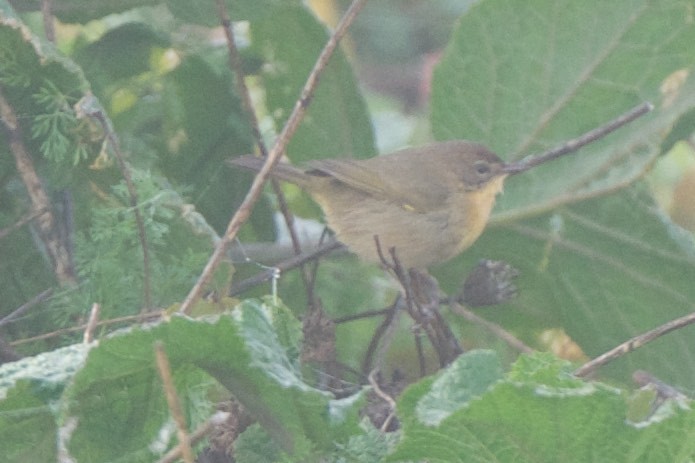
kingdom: Animalia
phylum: Chordata
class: Aves
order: Passeriformes
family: Parulidae
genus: Geothlypis
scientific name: Geothlypis trichas
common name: Common yellowthroat
